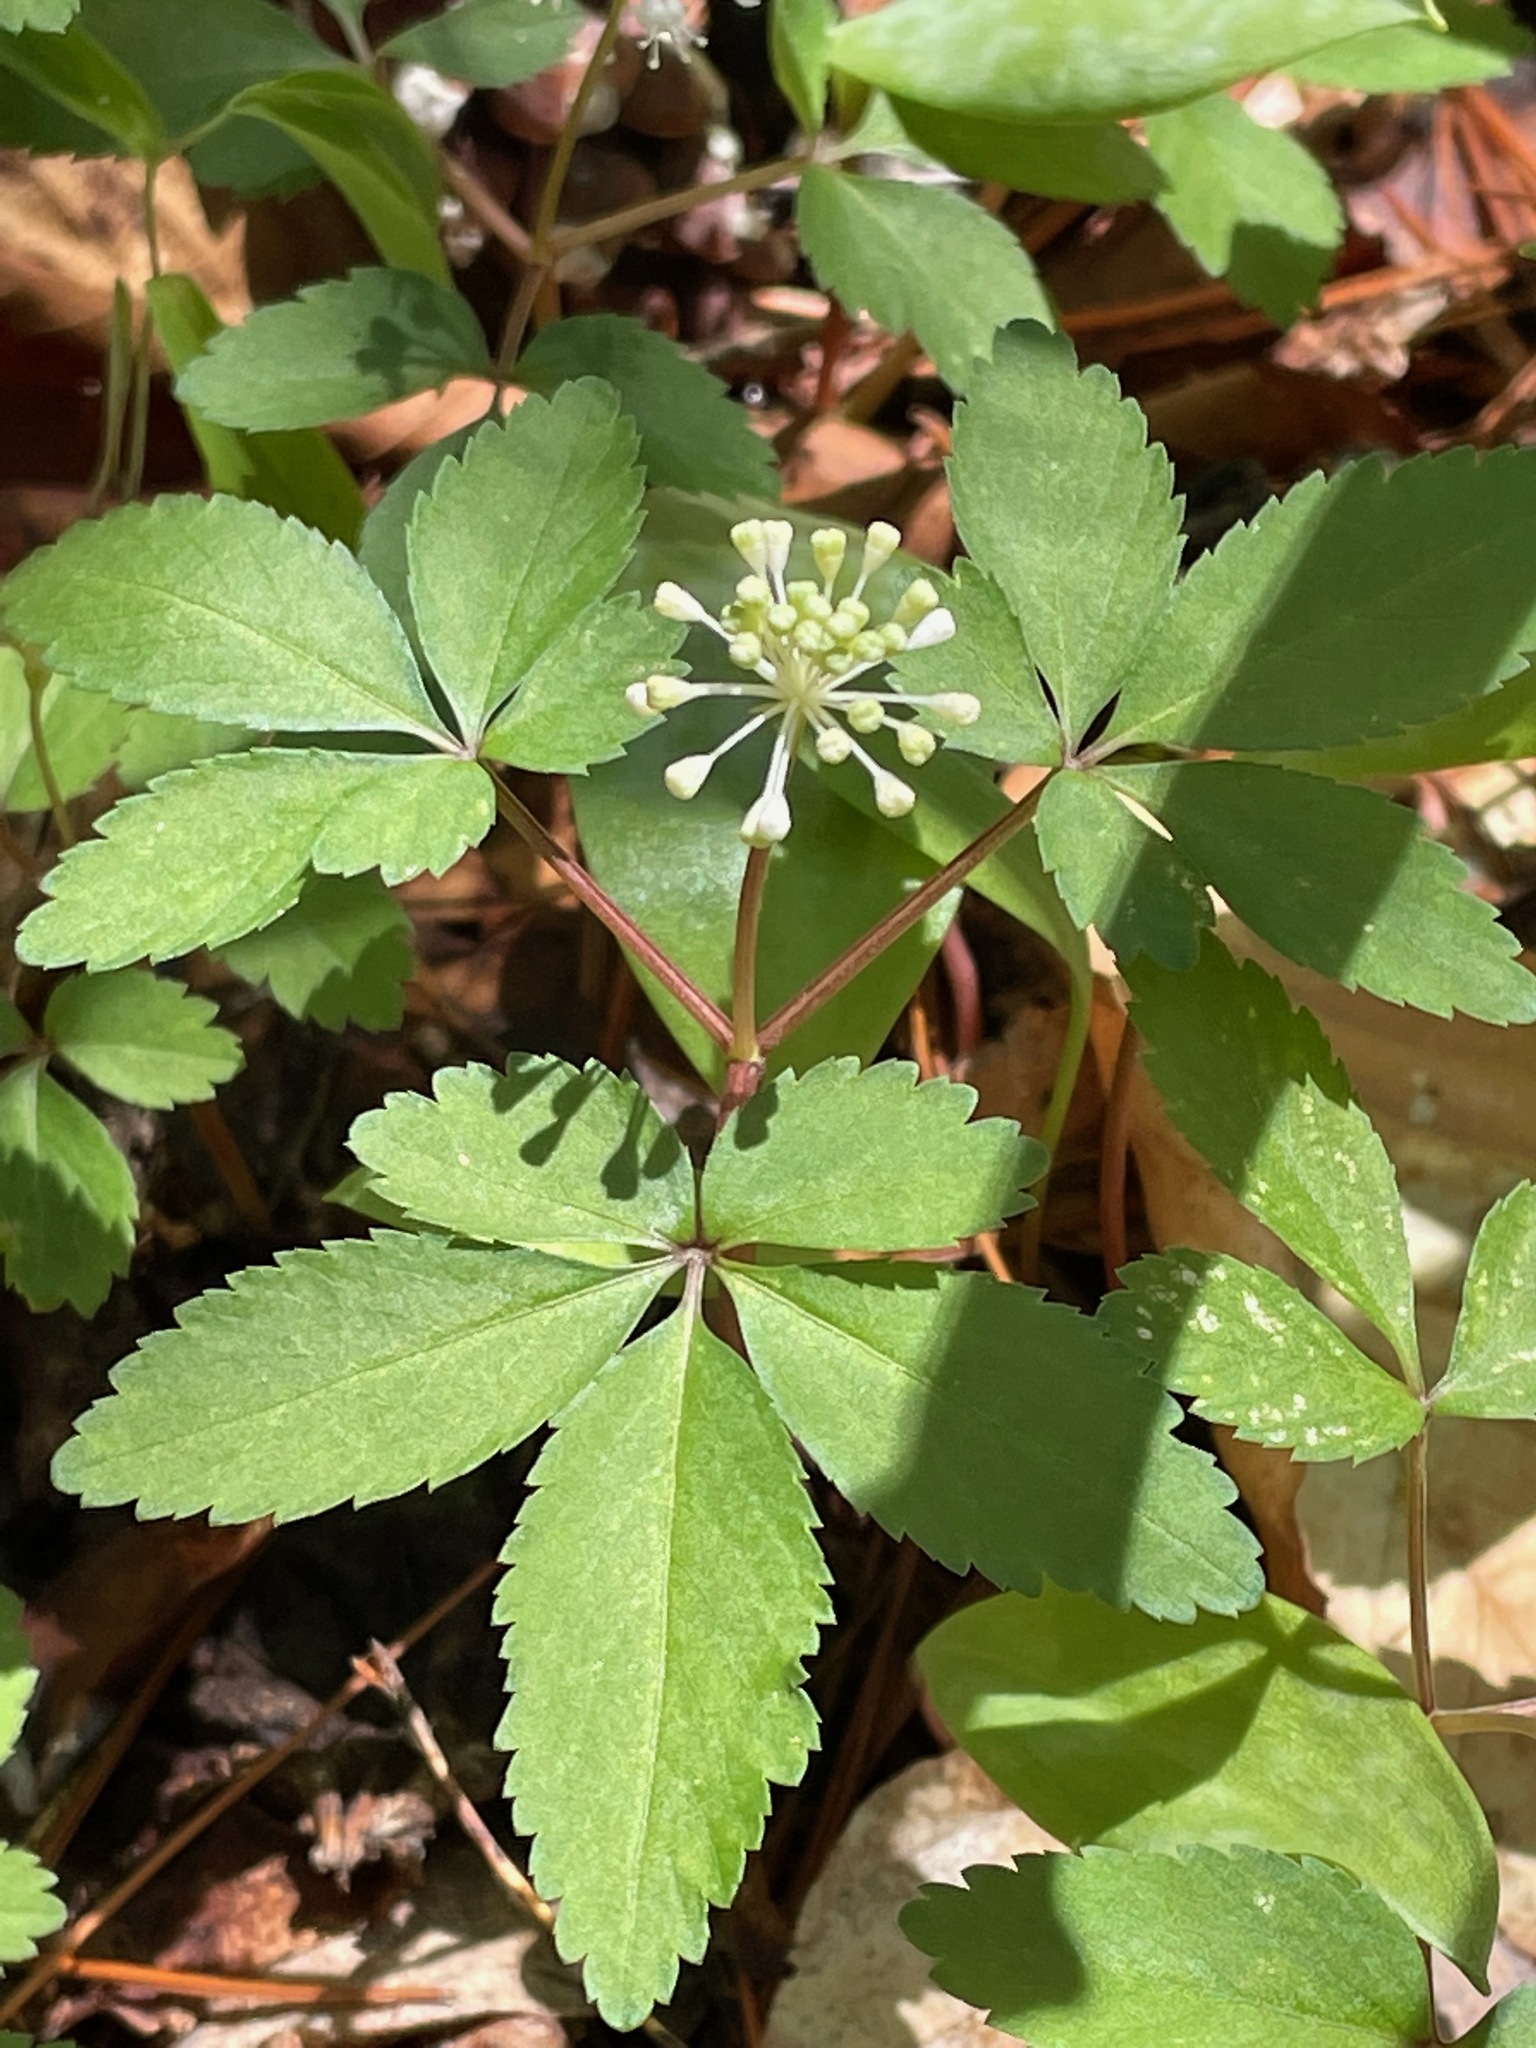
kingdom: Plantae
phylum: Tracheophyta
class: Magnoliopsida
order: Apiales
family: Araliaceae
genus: Panax
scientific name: Panax trifolius
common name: Dwarf ginseng
